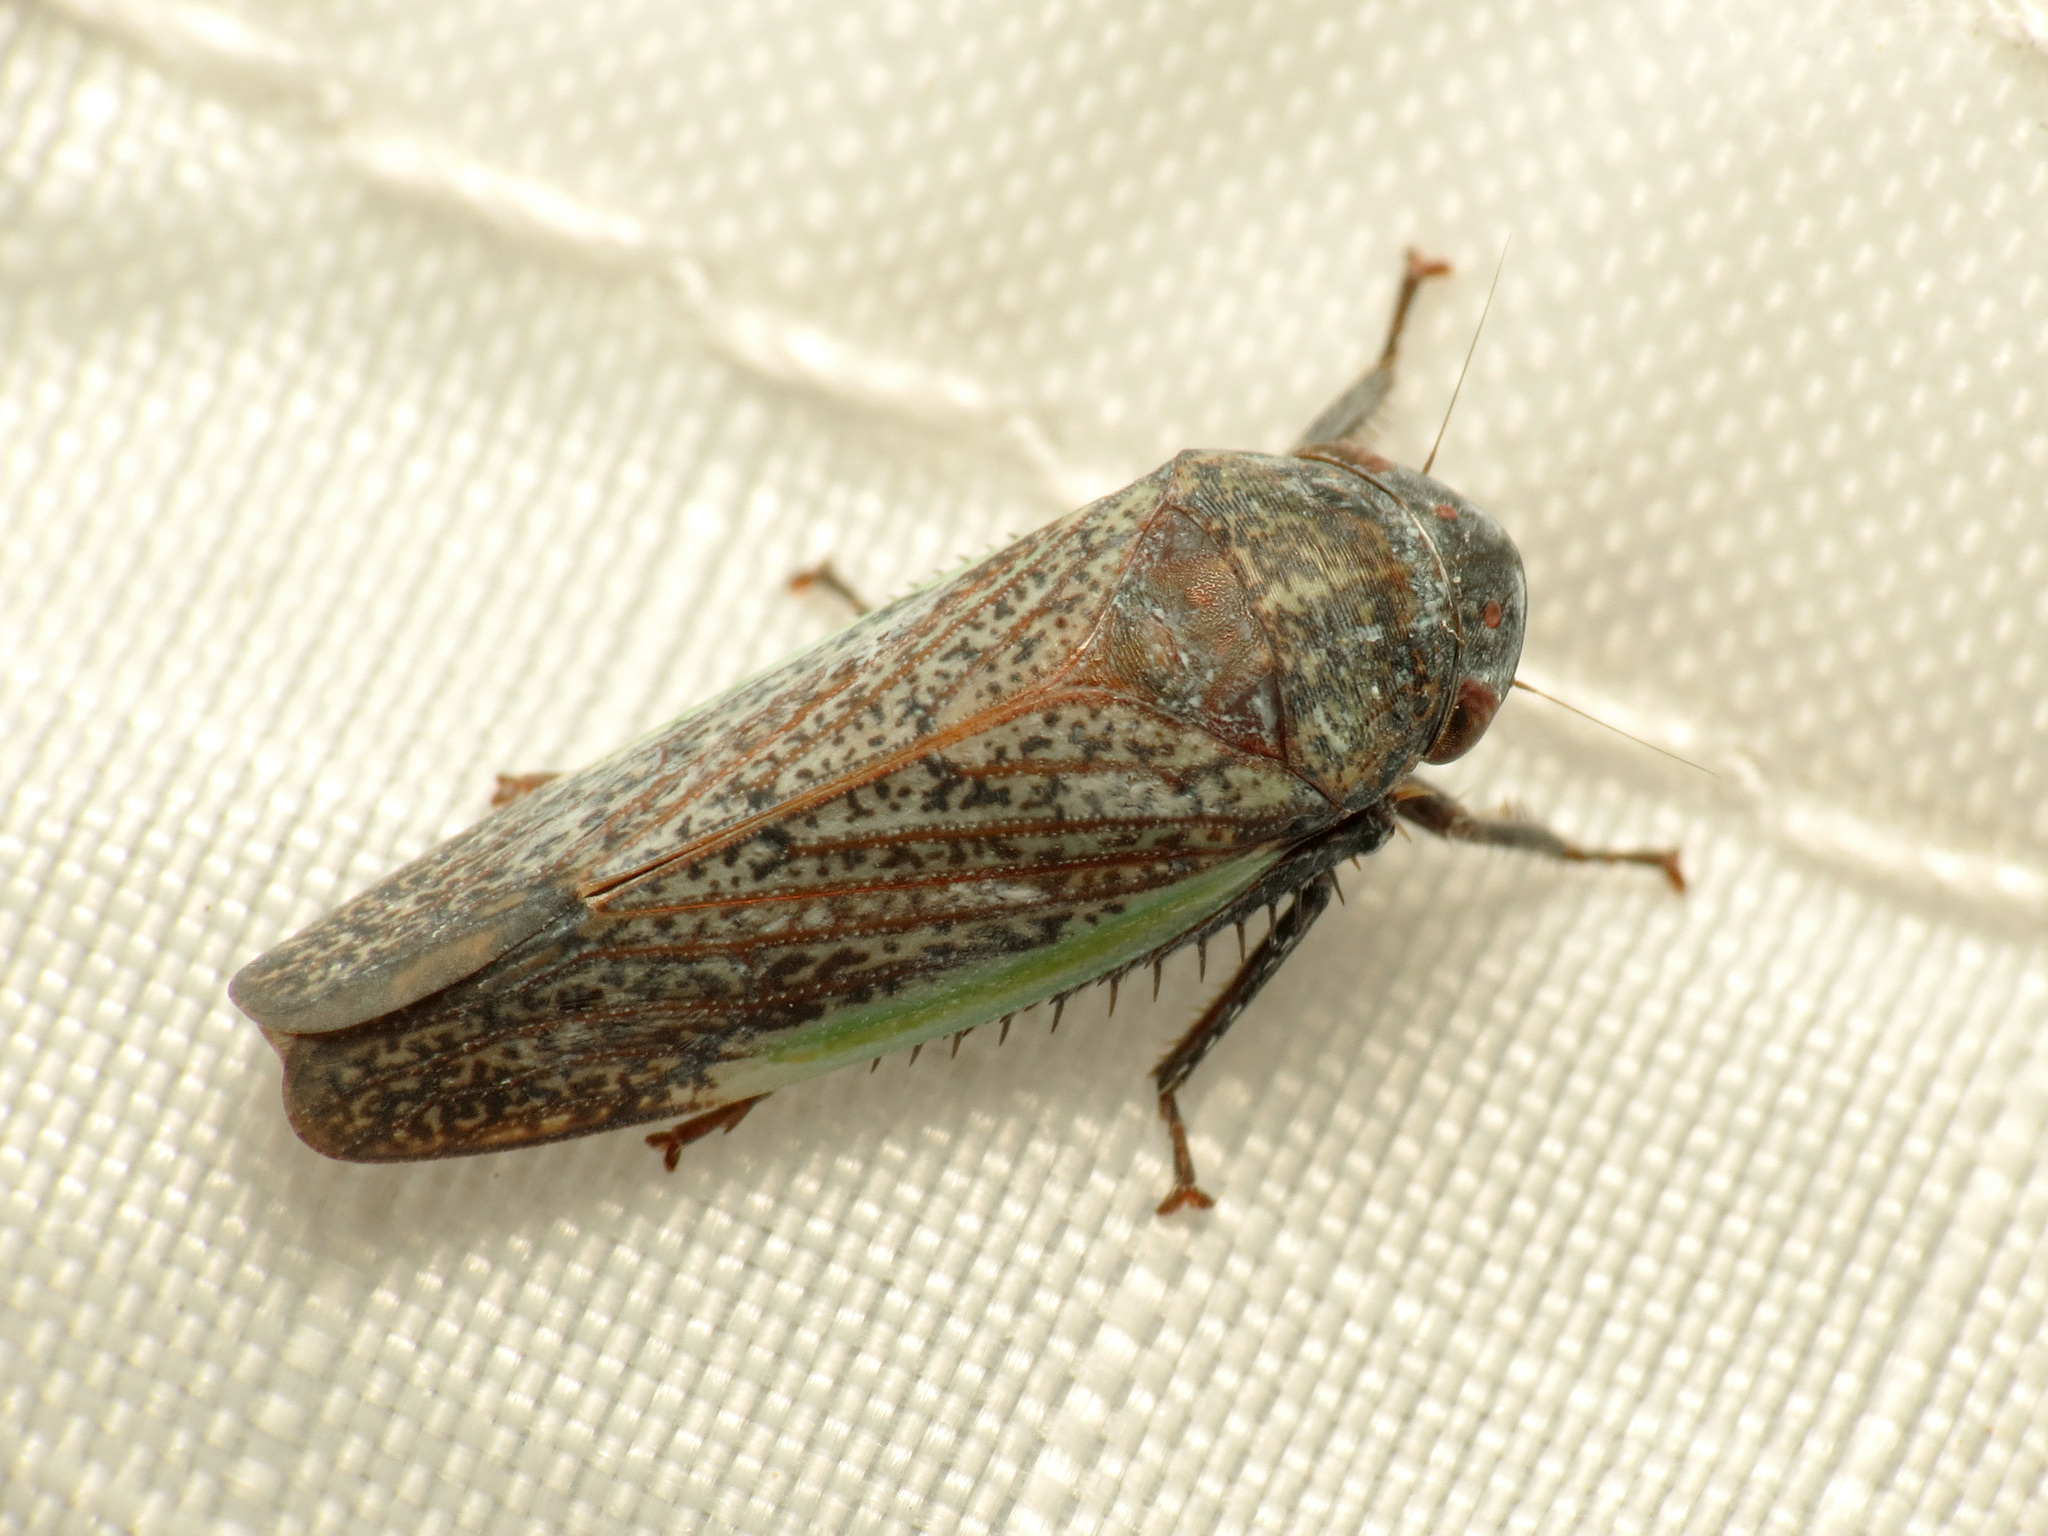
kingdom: Animalia
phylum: Arthropoda
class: Insecta
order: Hemiptera
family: Cicadellidae
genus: Hamana
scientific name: Hamana gelbata
